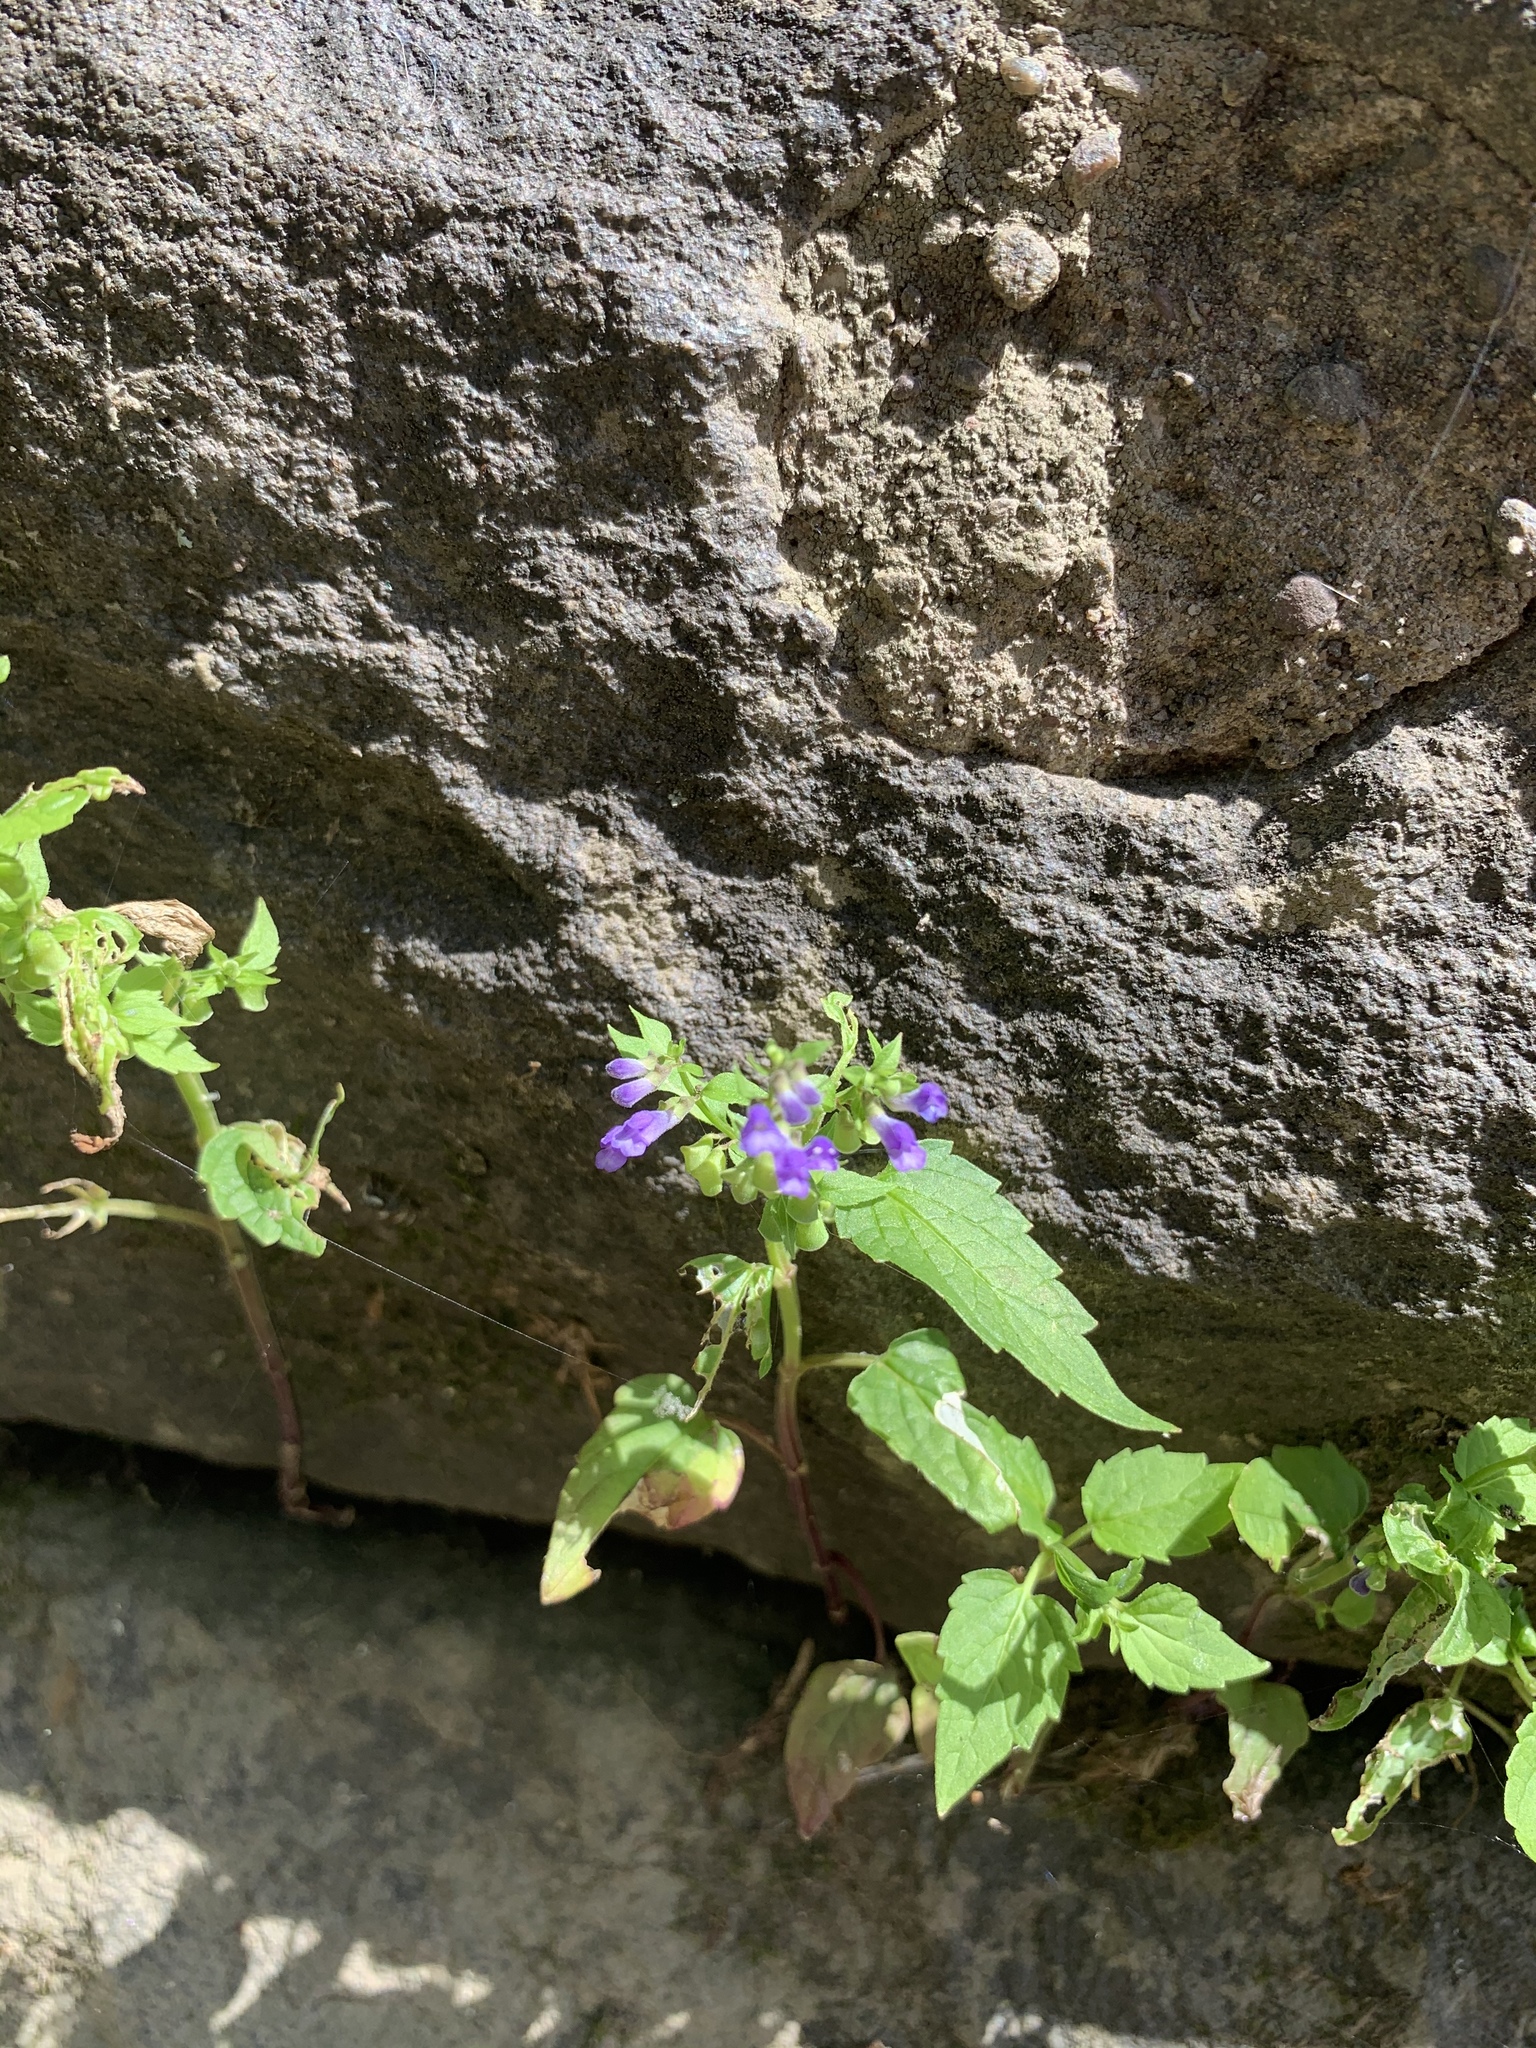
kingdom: Plantae
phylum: Tracheophyta
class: Magnoliopsida
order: Lamiales
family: Lamiaceae
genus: Scutellaria
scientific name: Scutellaria lateriflora
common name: Blue skullcap
